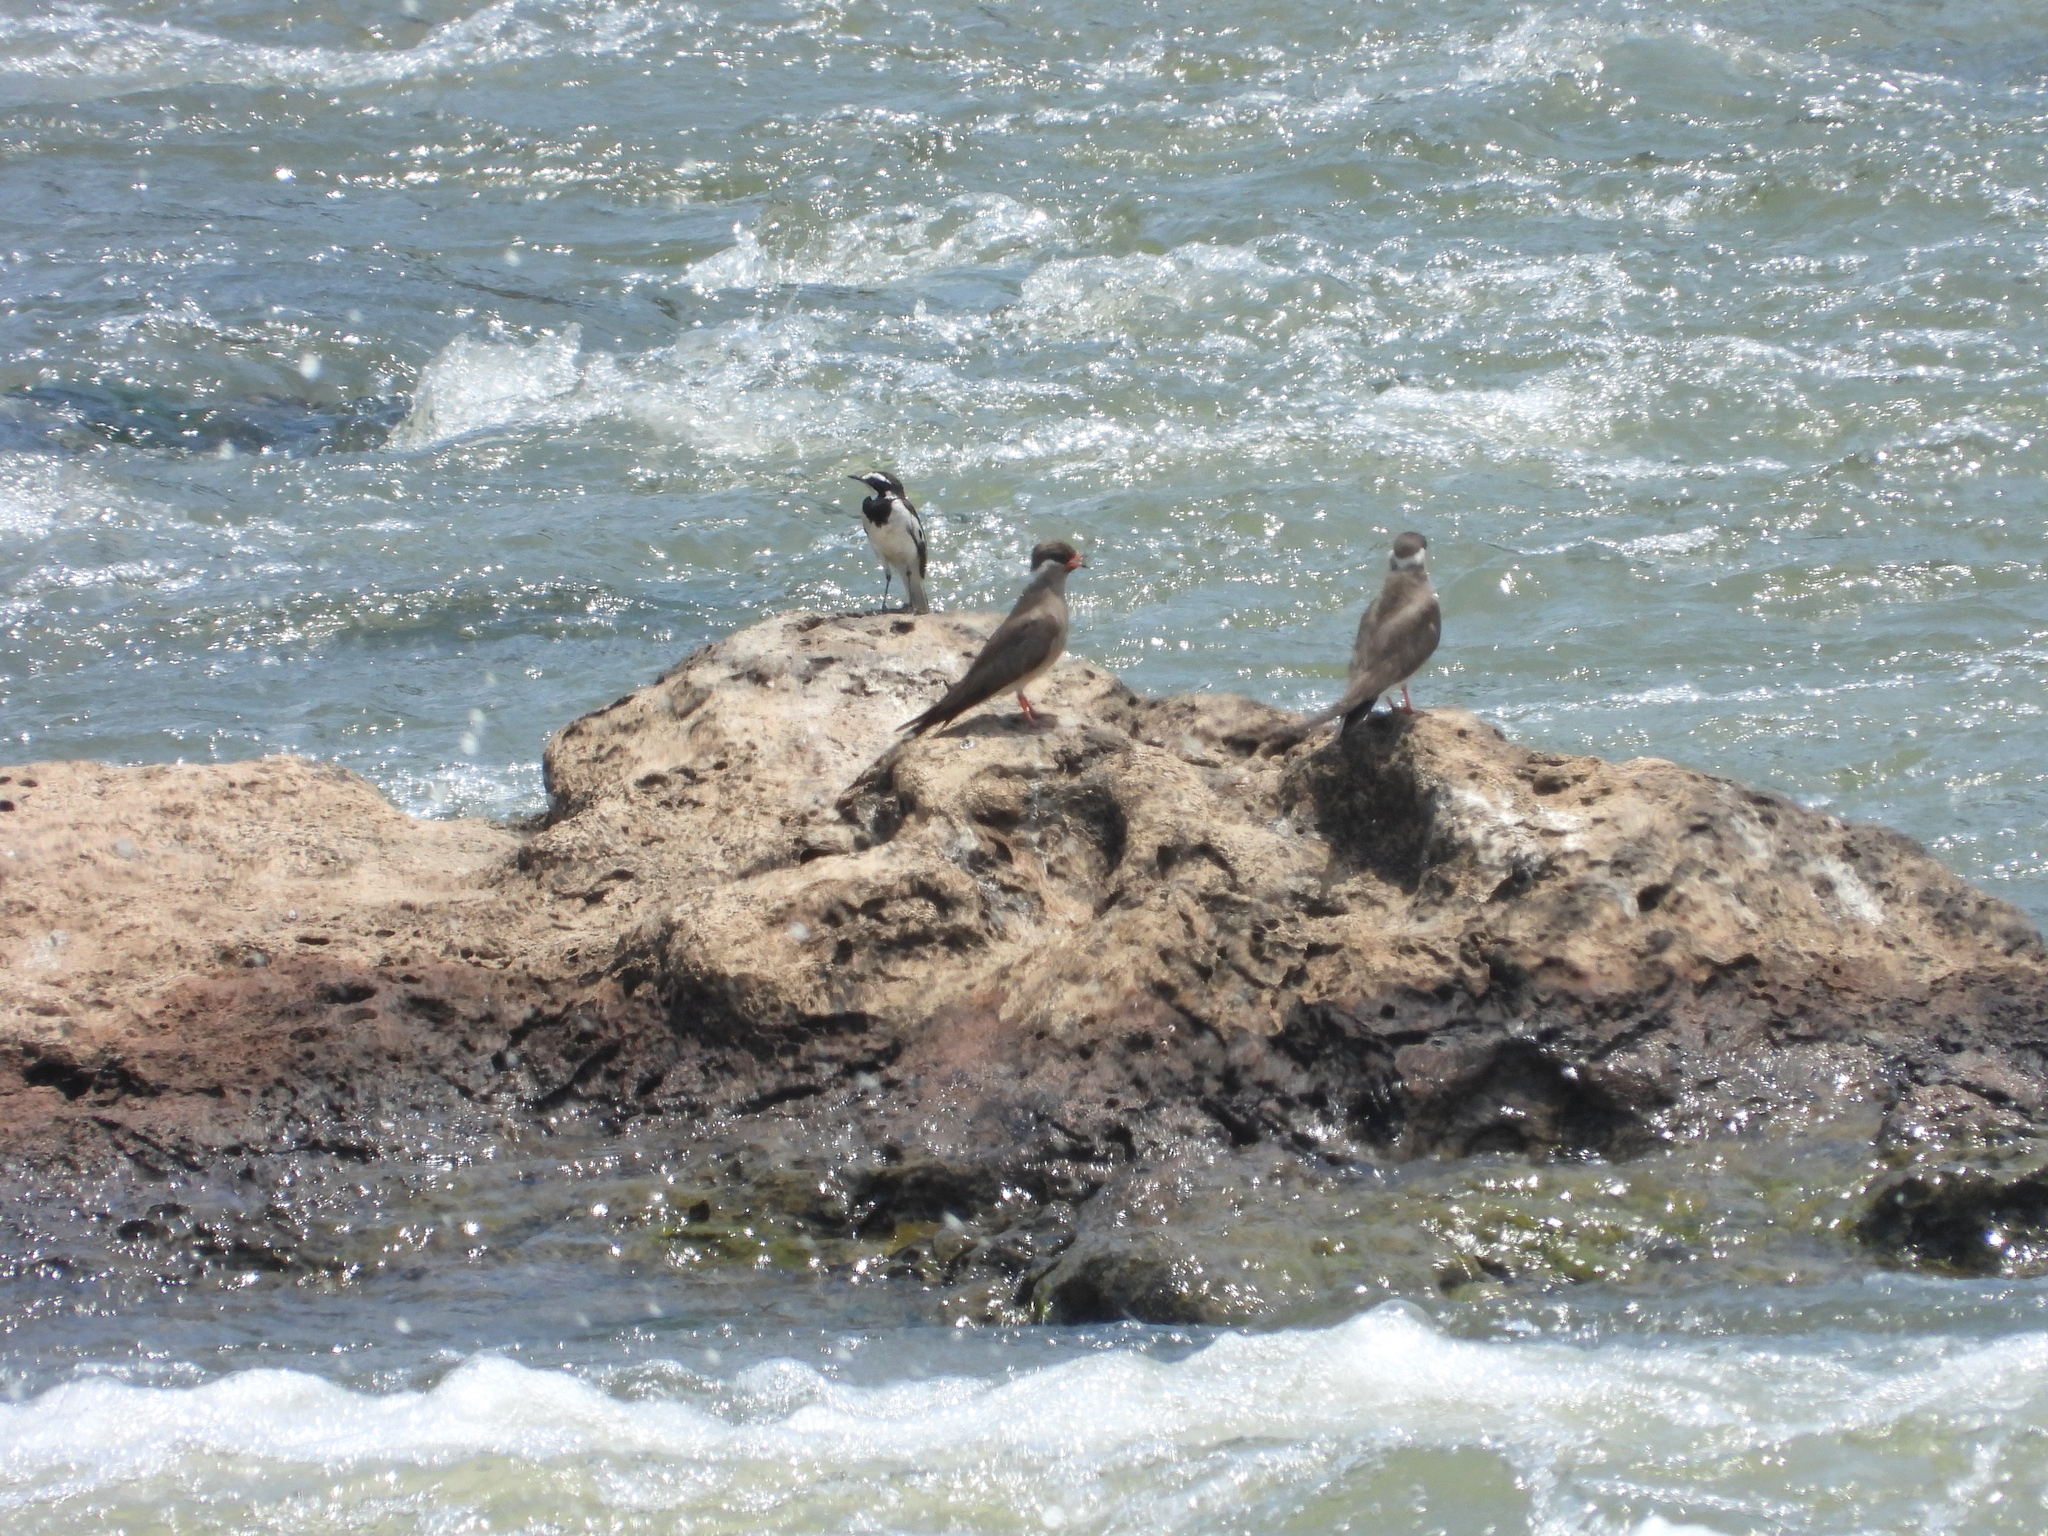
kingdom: Animalia
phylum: Chordata
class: Aves
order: Passeriformes
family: Motacillidae
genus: Motacilla
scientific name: Motacilla aguimp
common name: African pied wagtail
